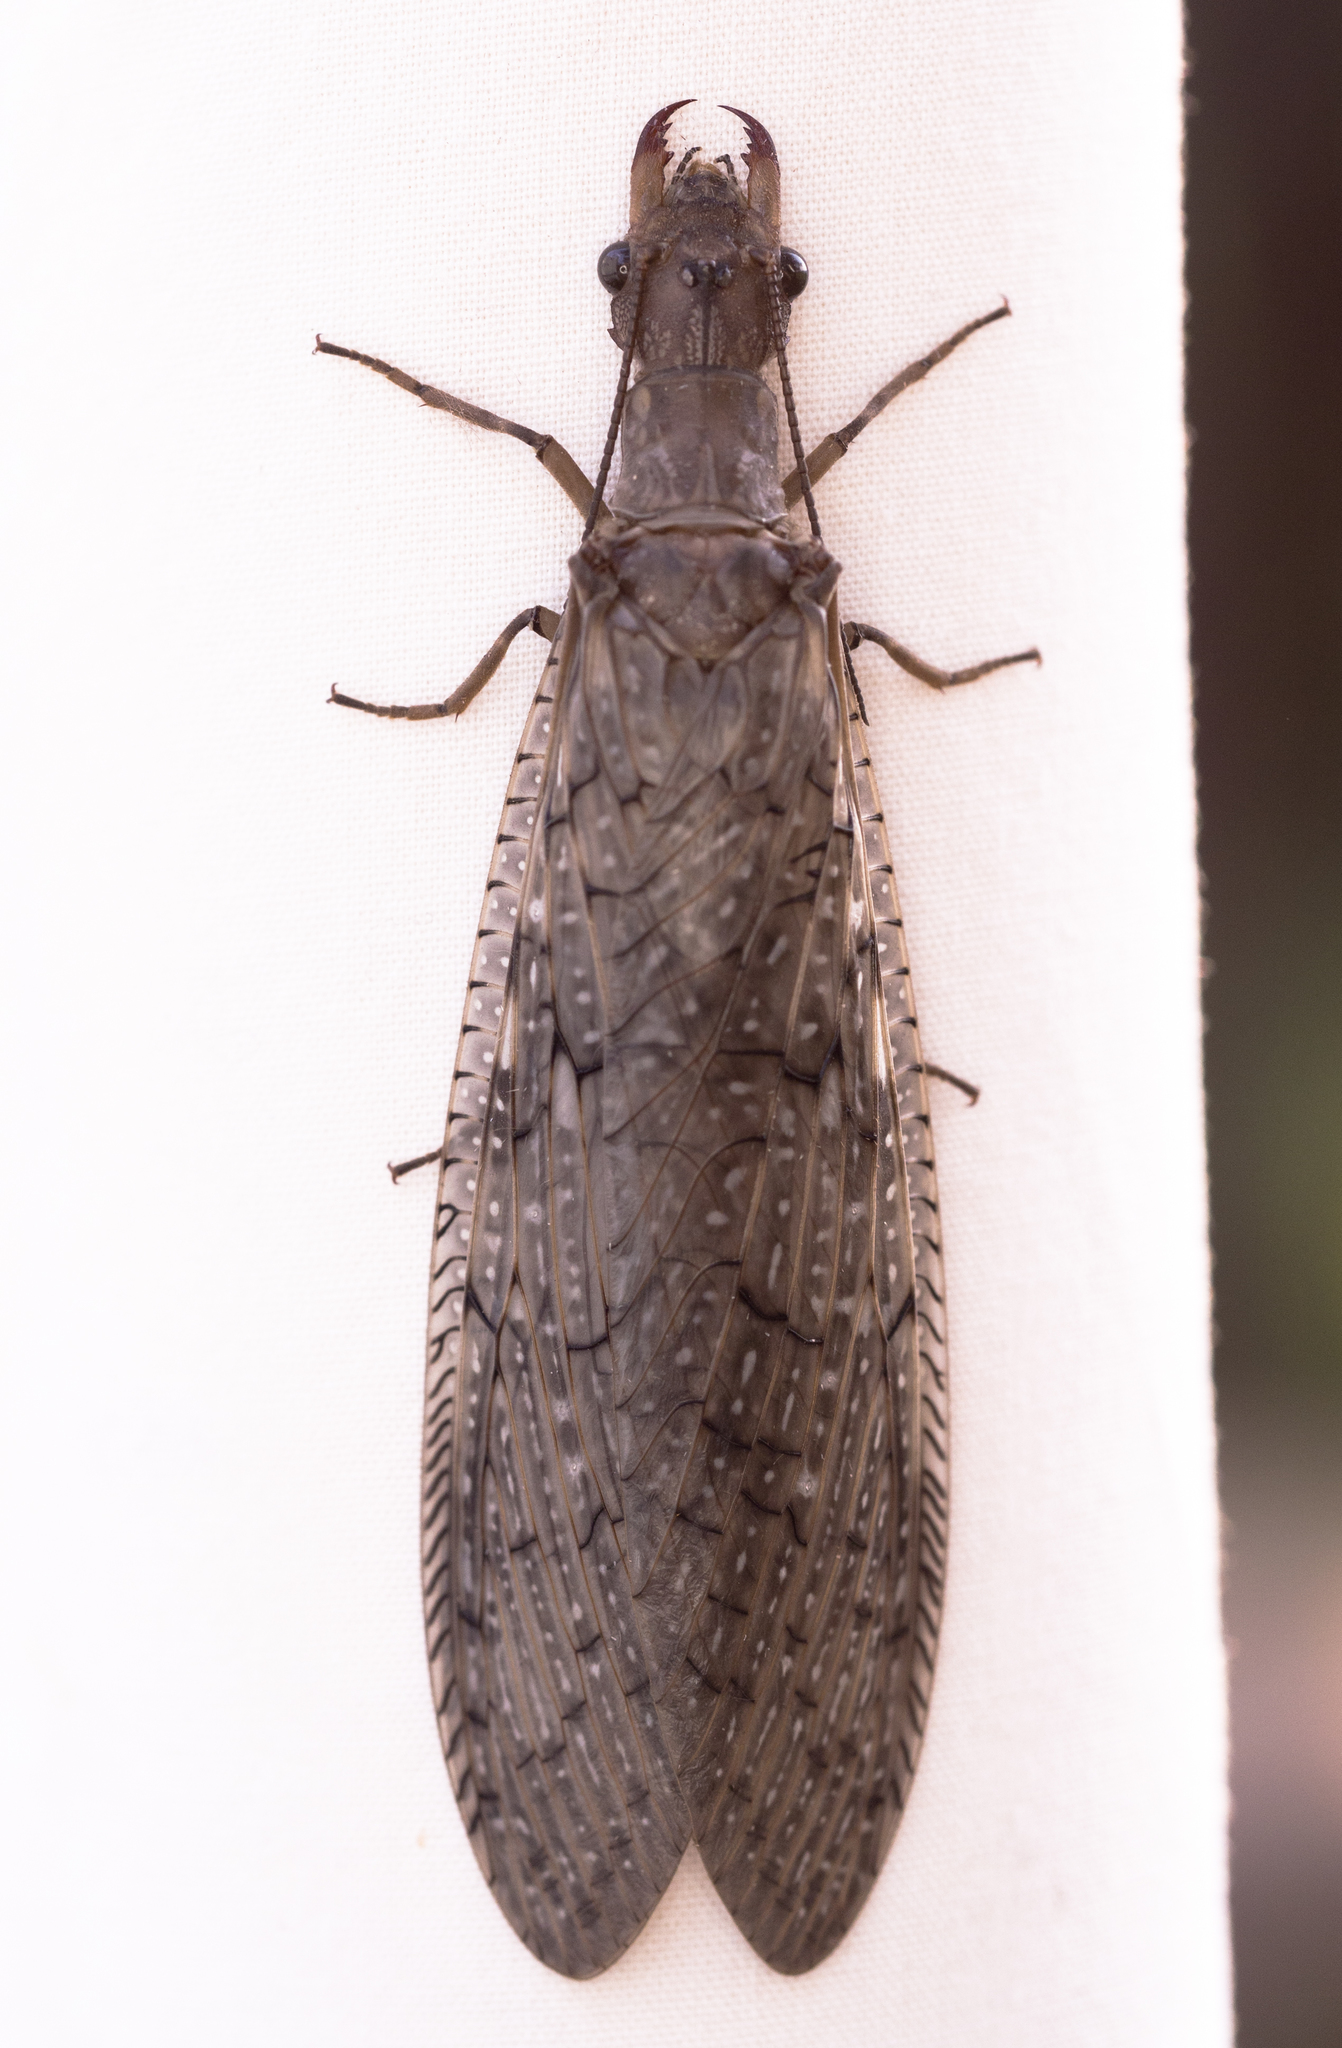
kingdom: Animalia
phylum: Arthropoda
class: Insecta
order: Megaloptera
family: Corydalidae
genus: Corydalus
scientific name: Corydalus texanus
